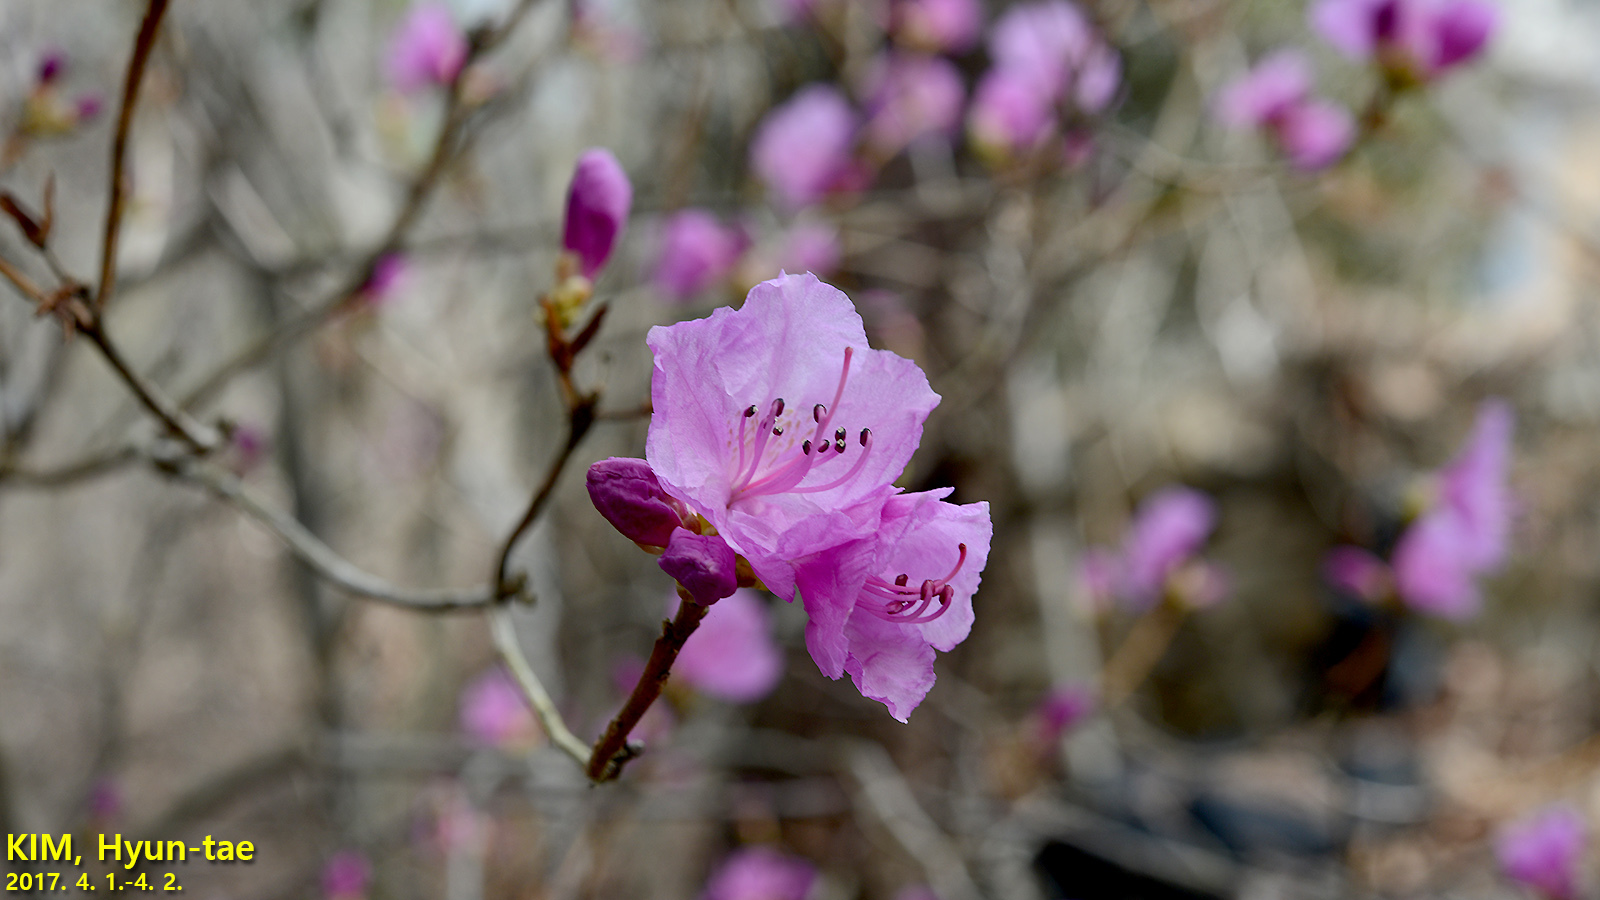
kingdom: Plantae
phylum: Tracheophyta
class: Magnoliopsida
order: Ericales
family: Ericaceae
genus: Rhododendron
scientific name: Rhododendron mucronulatum
